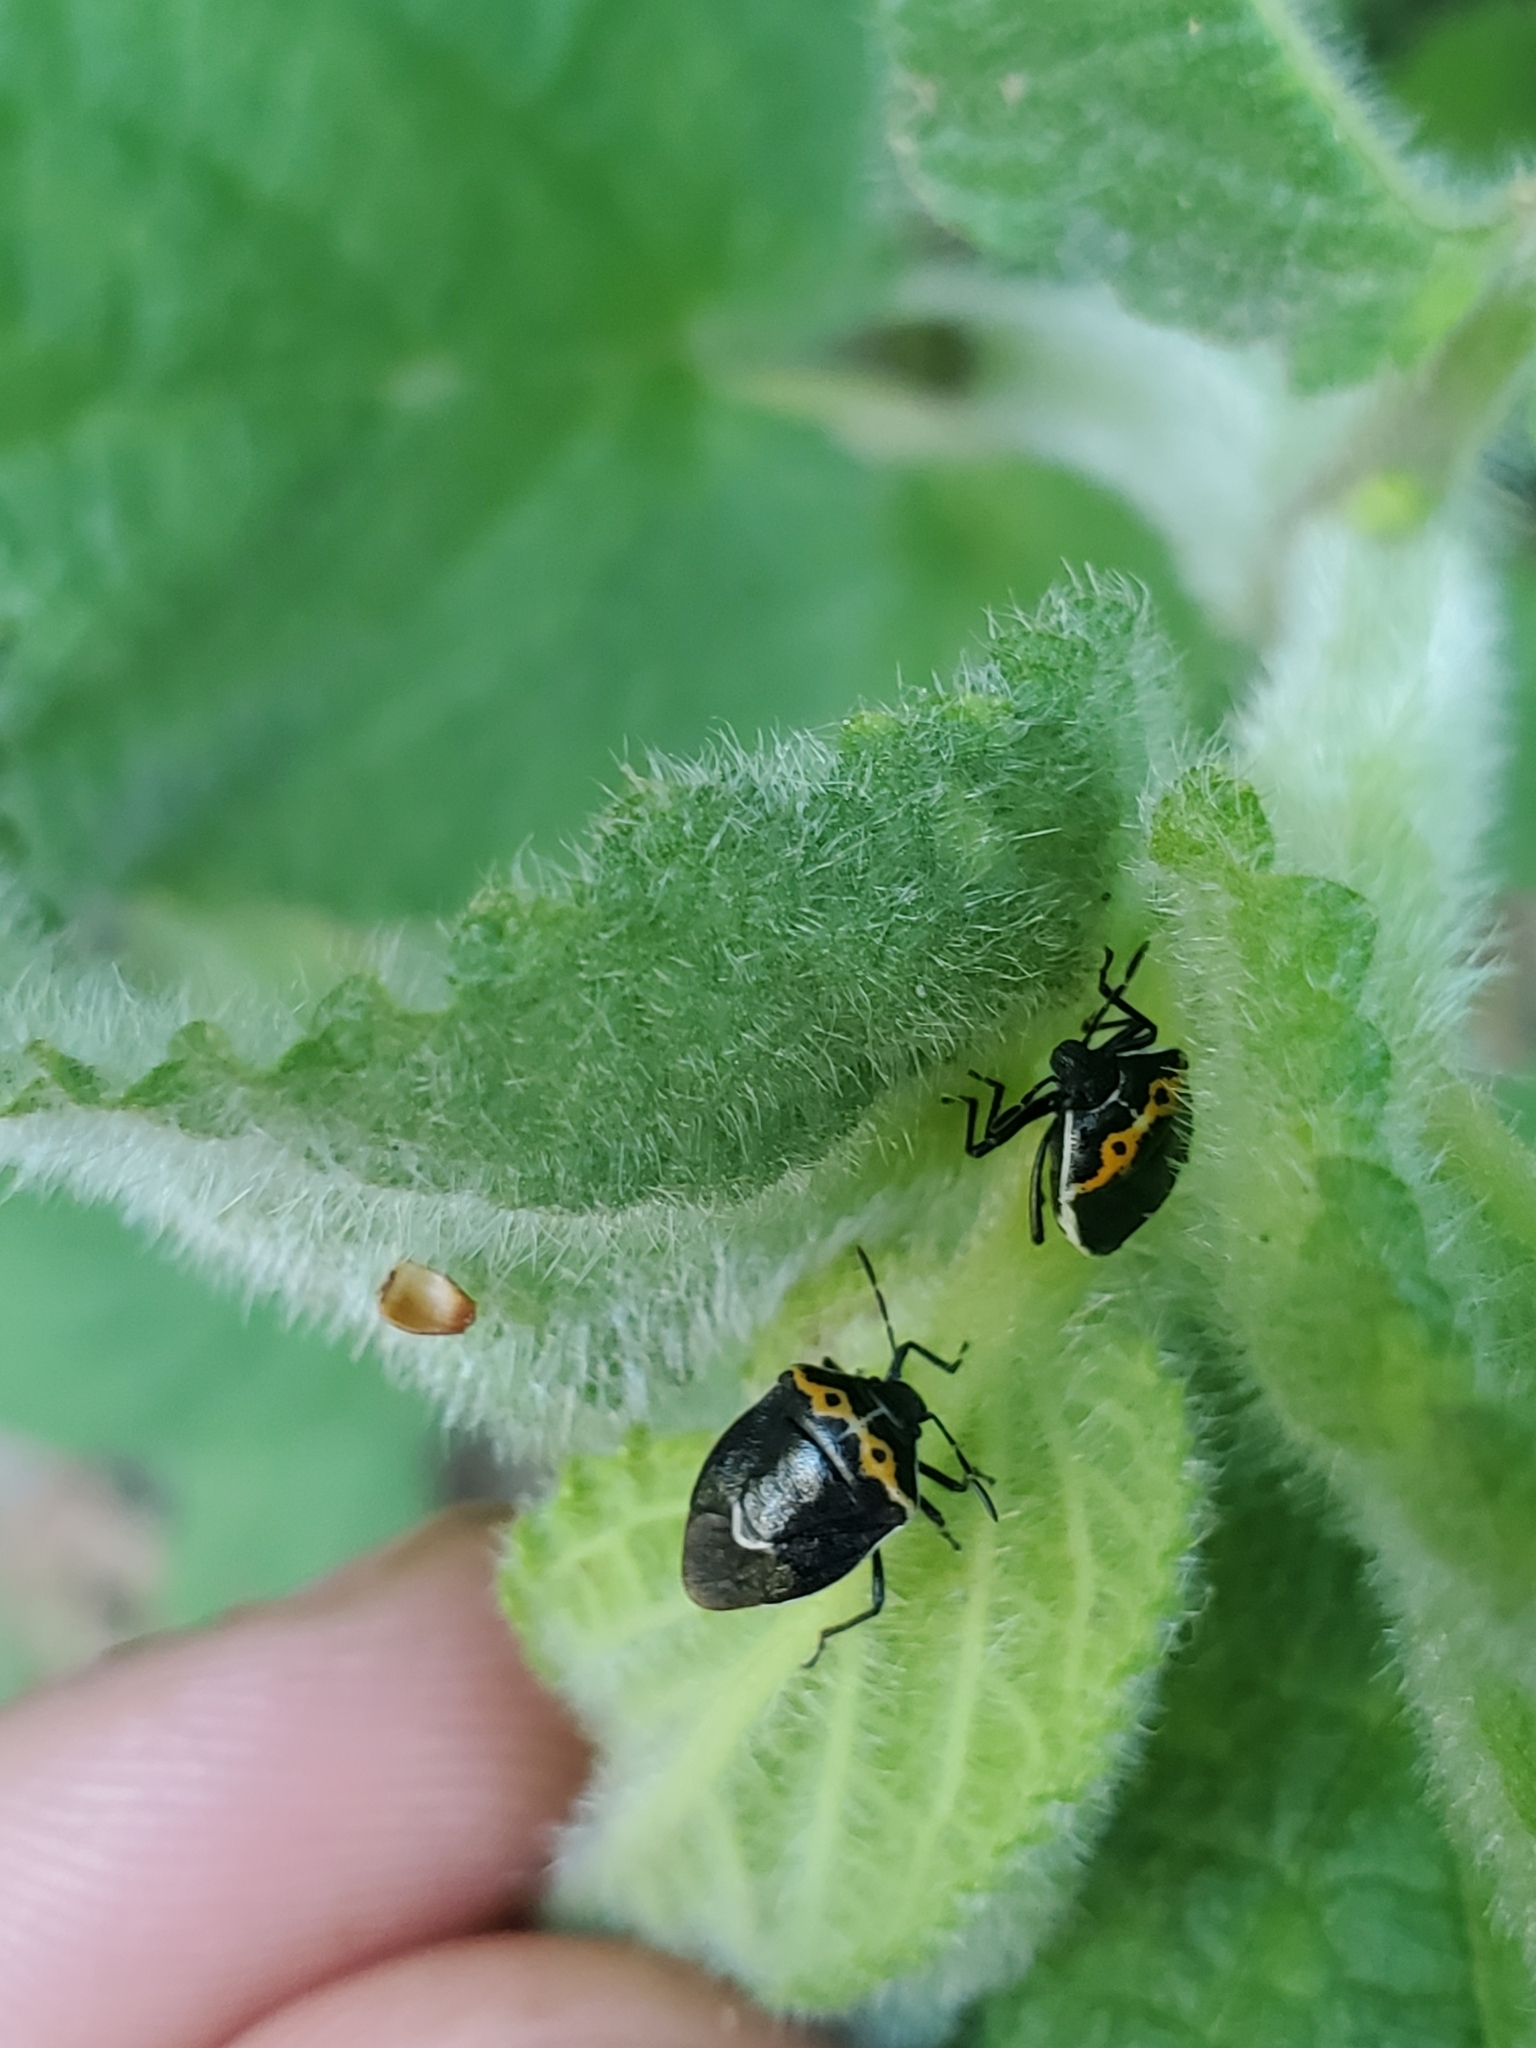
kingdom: Animalia
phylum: Arthropoda
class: Insecta
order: Hemiptera
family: Pentatomidae
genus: Cosmopepla
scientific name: Cosmopepla conspicillaris
